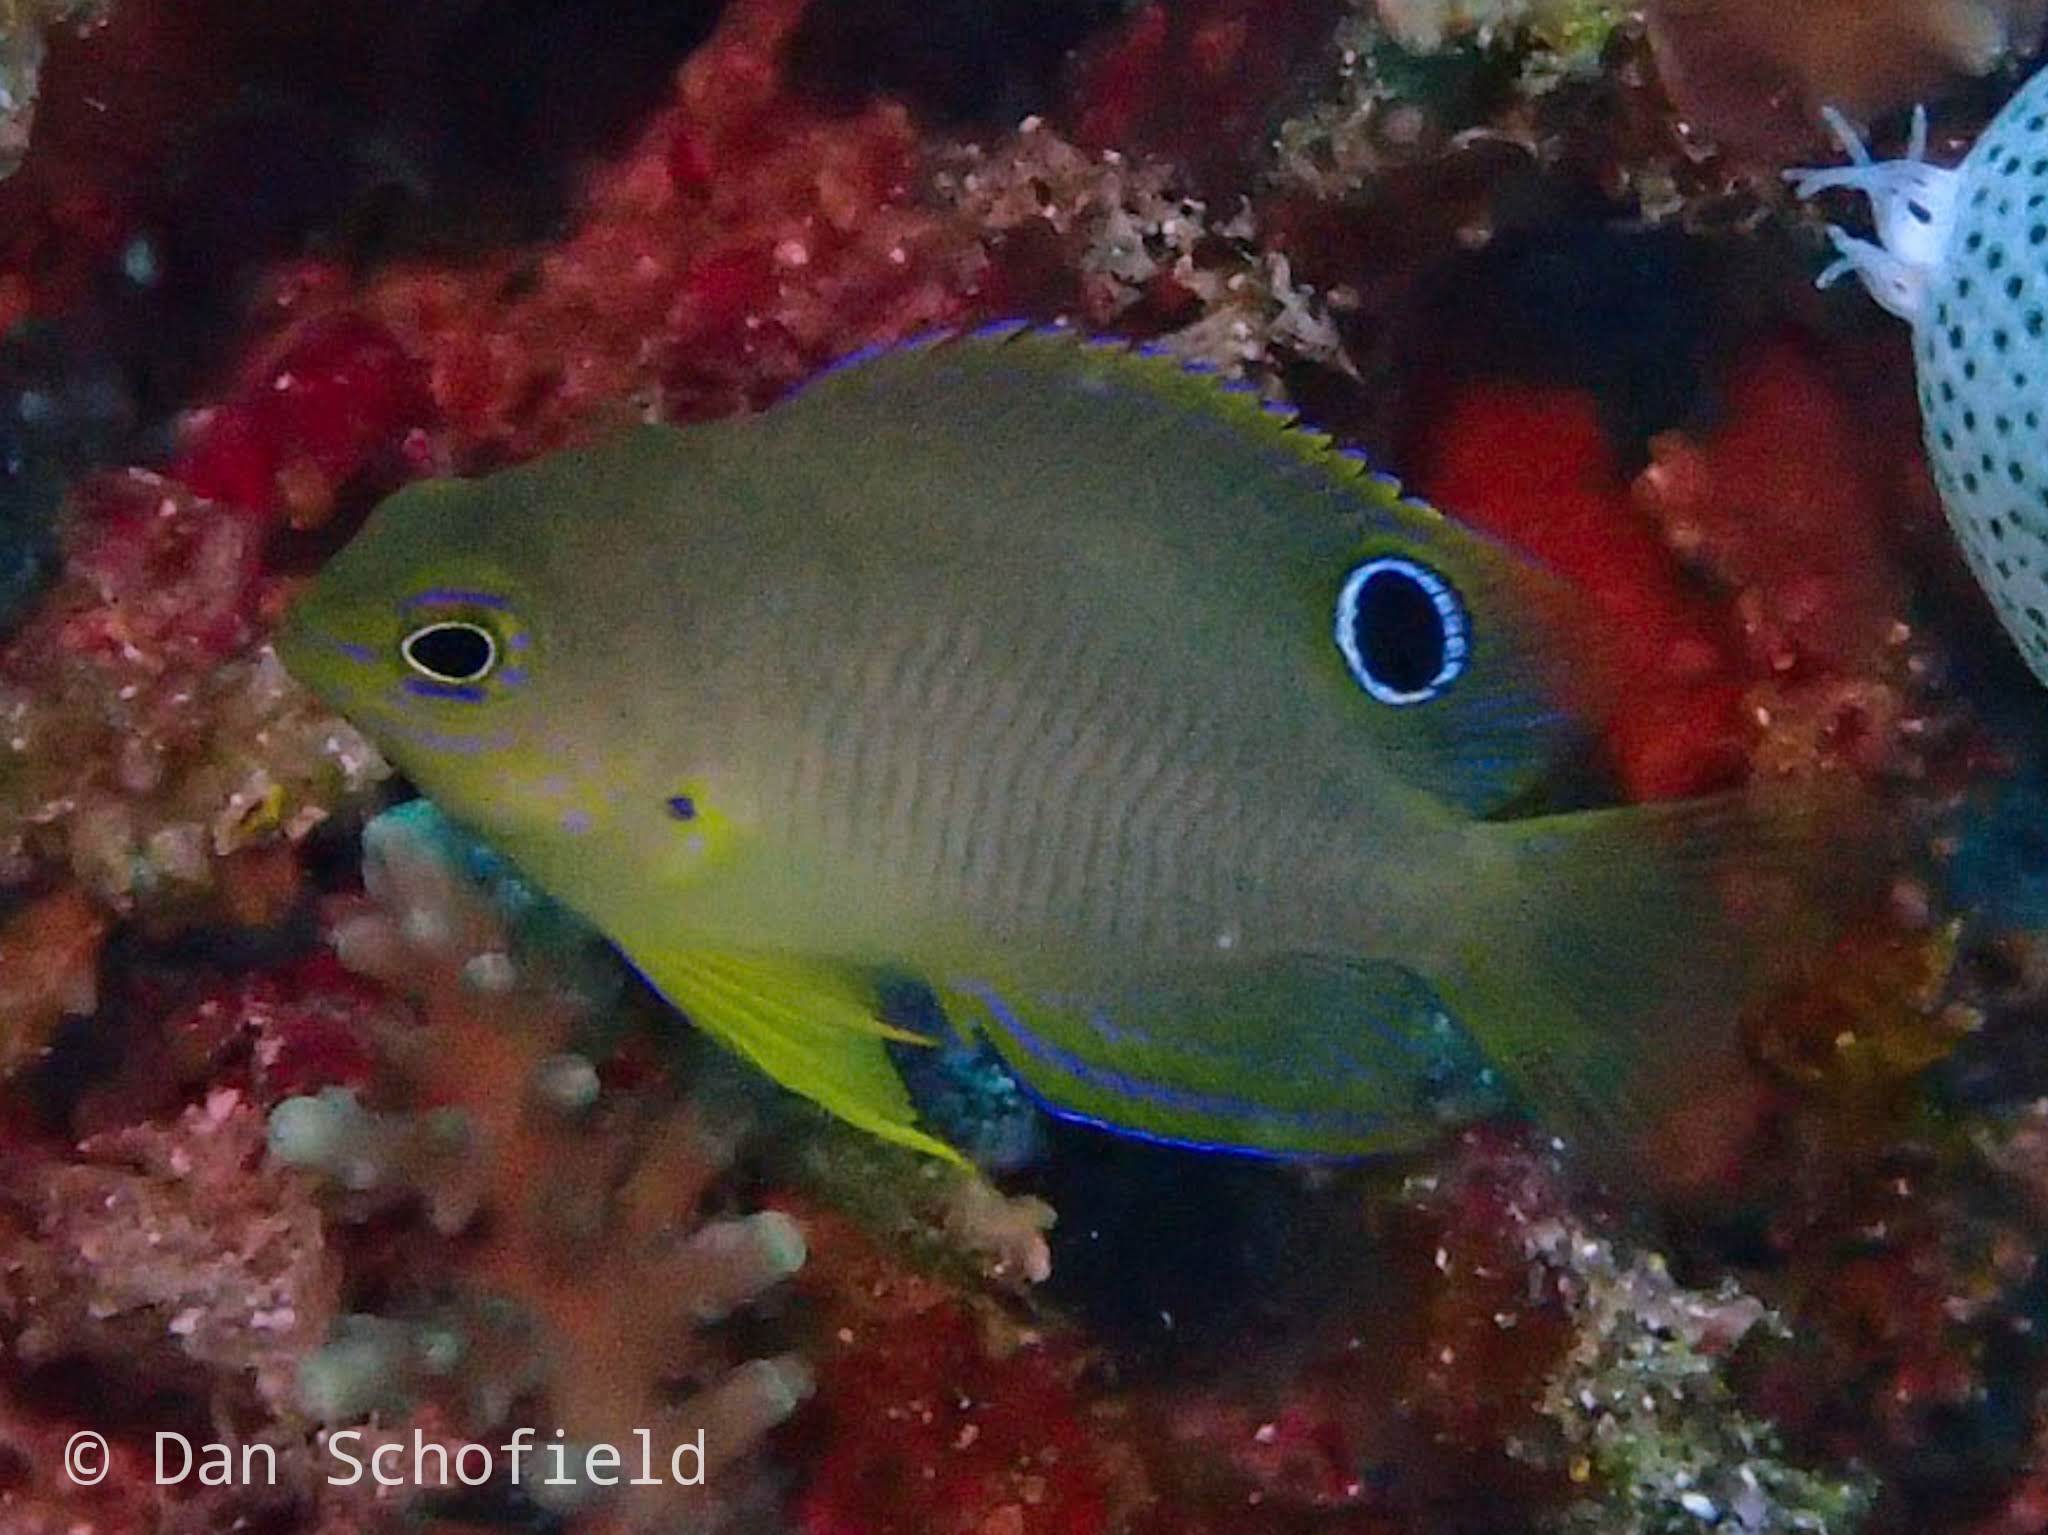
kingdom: Animalia
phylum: Chordata
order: Perciformes
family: Pomacentridae
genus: Pomacentrus
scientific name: Pomacentrus amboinensis
